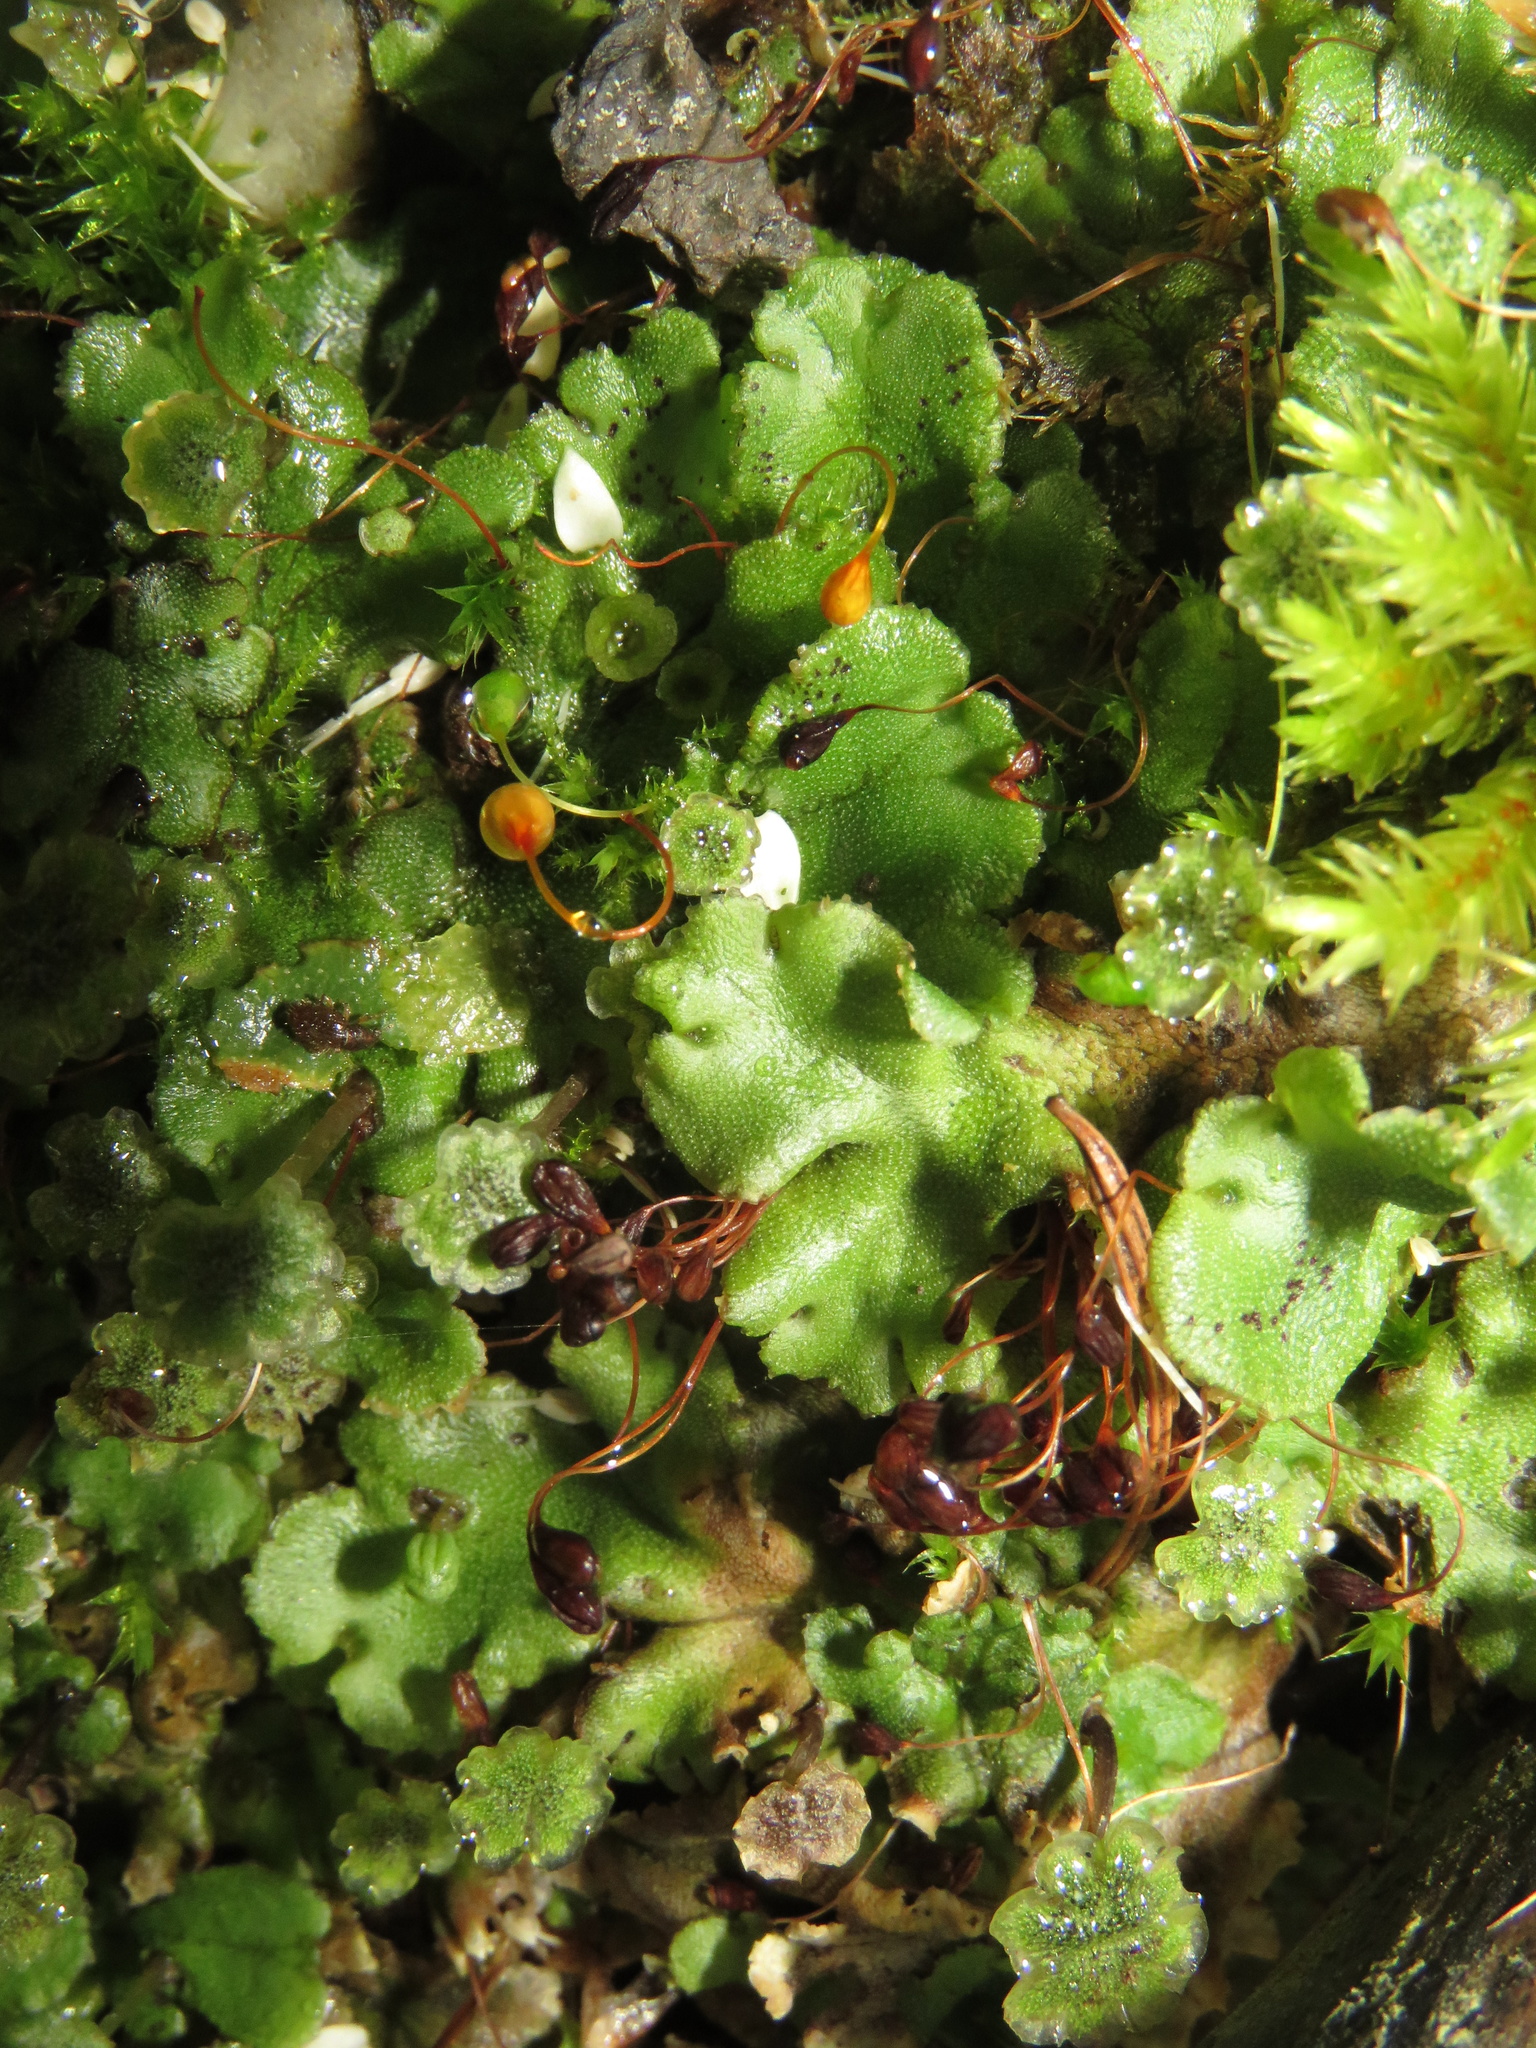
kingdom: Plantae
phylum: Marchantiophyta
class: Marchantiopsida
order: Marchantiales
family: Marchantiaceae
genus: Marchantia
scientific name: Marchantia polymorpha
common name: Common liverwort
